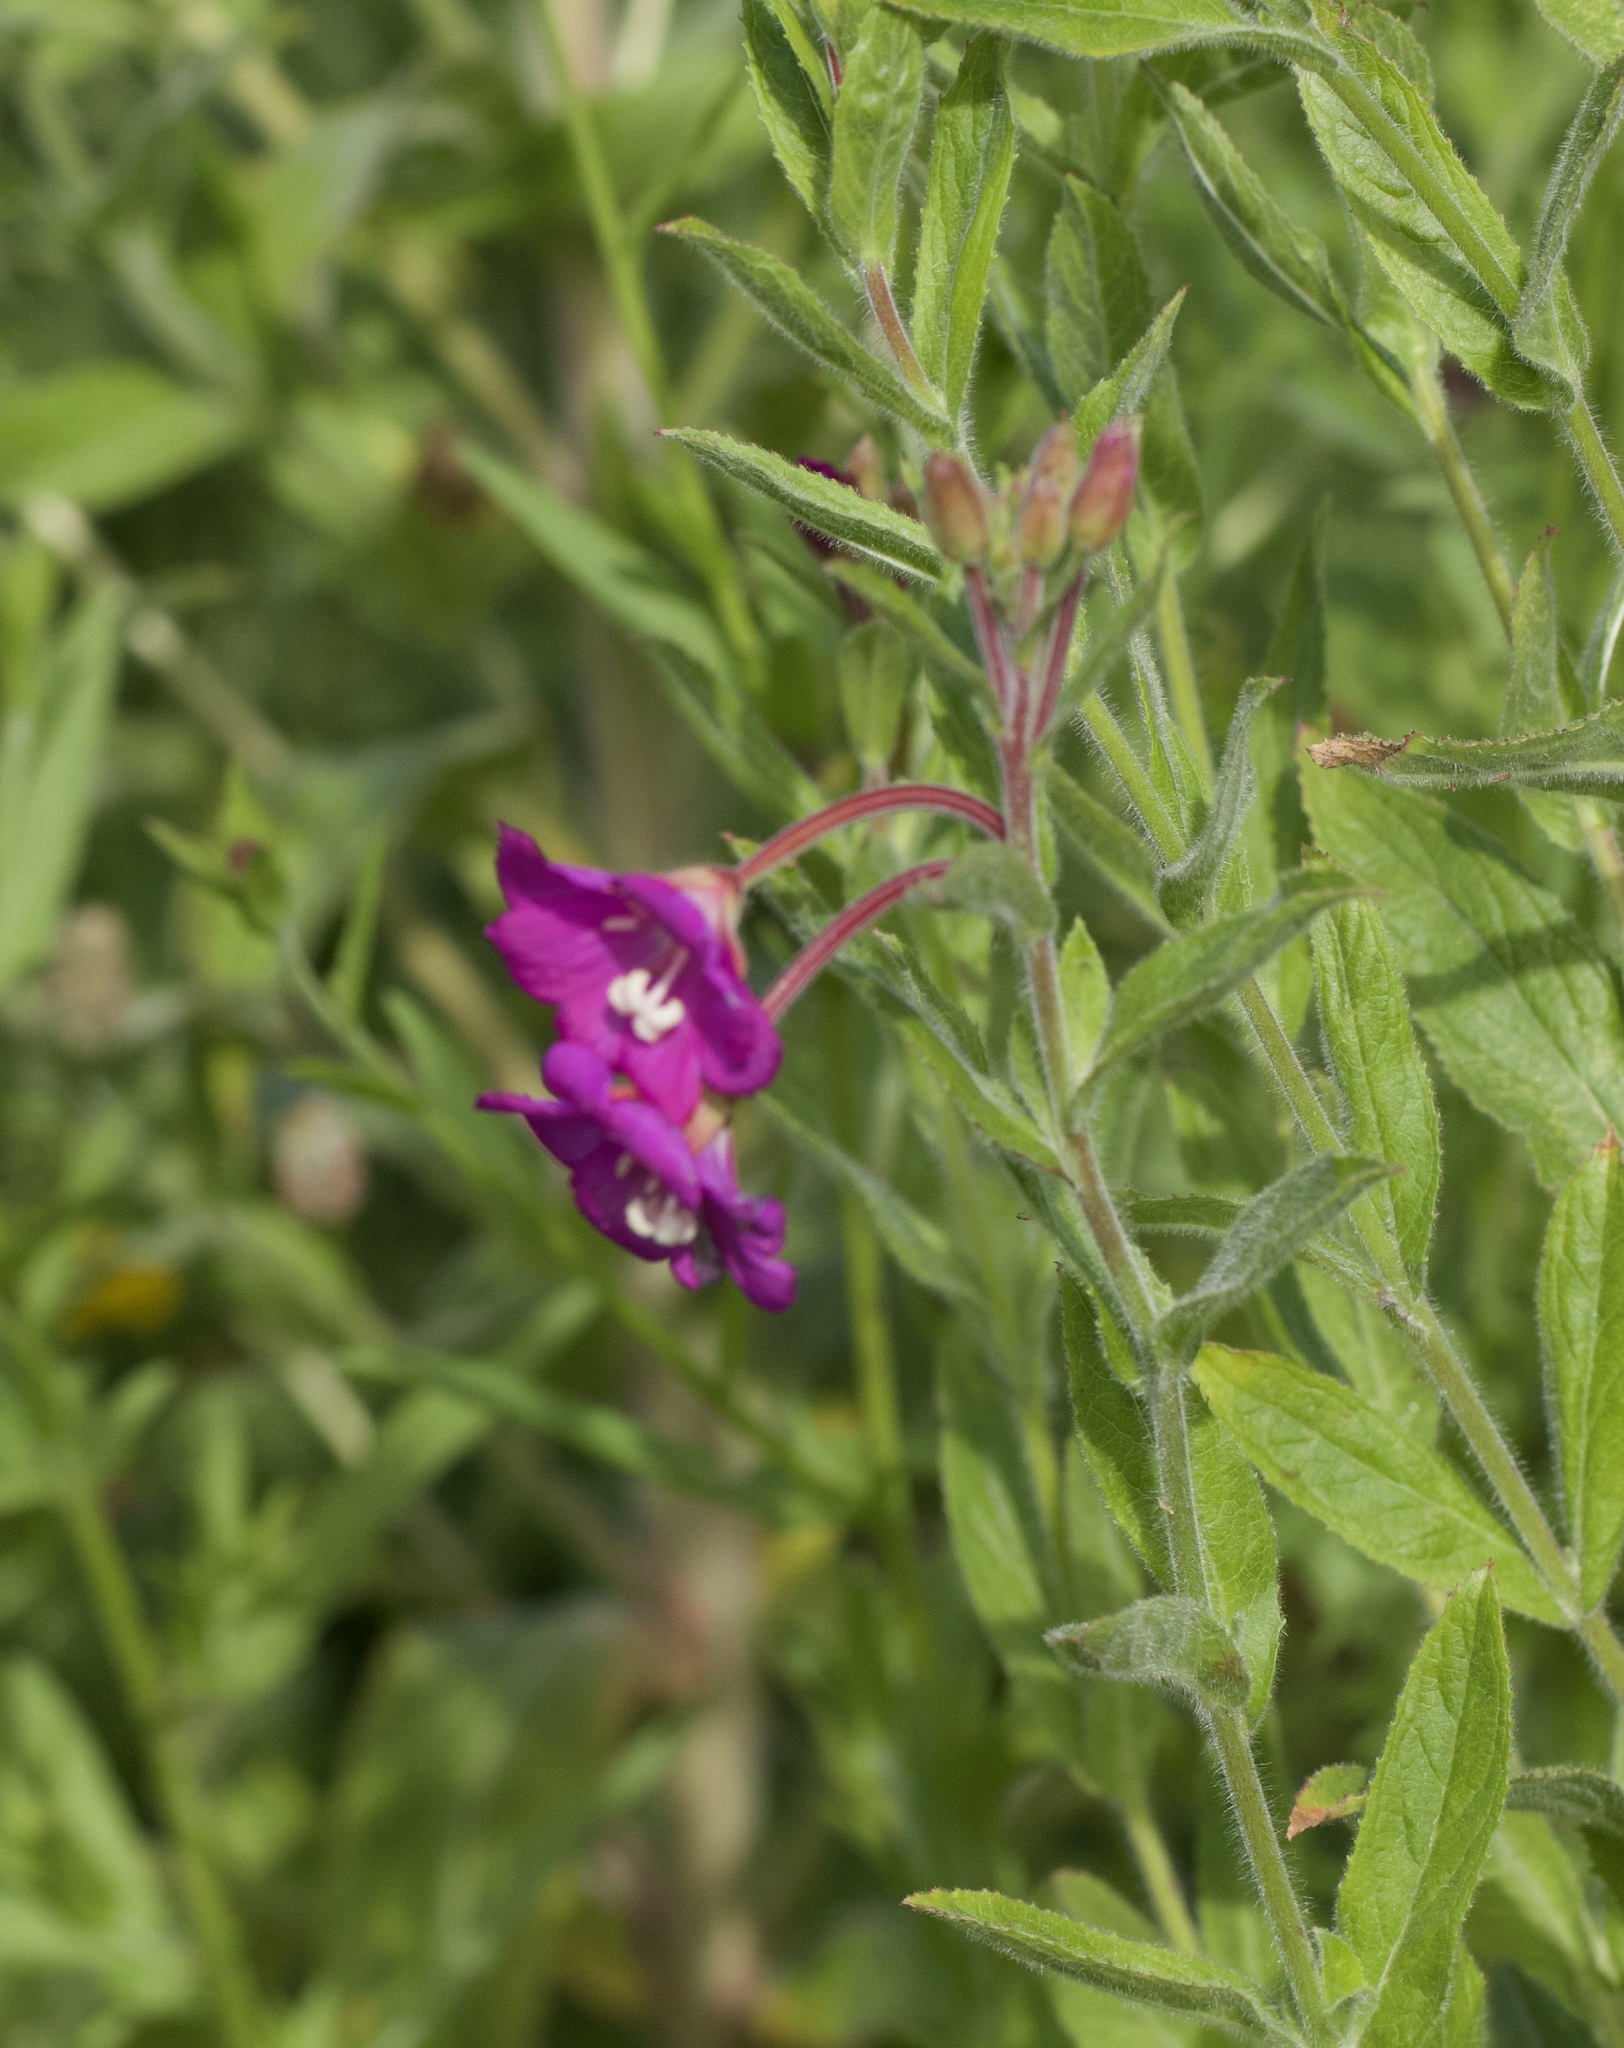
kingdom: Plantae
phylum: Tracheophyta
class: Magnoliopsida
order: Myrtales
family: Onagraceae
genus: Epilobium
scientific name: Epilobium hirsutum
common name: Great willowherb
